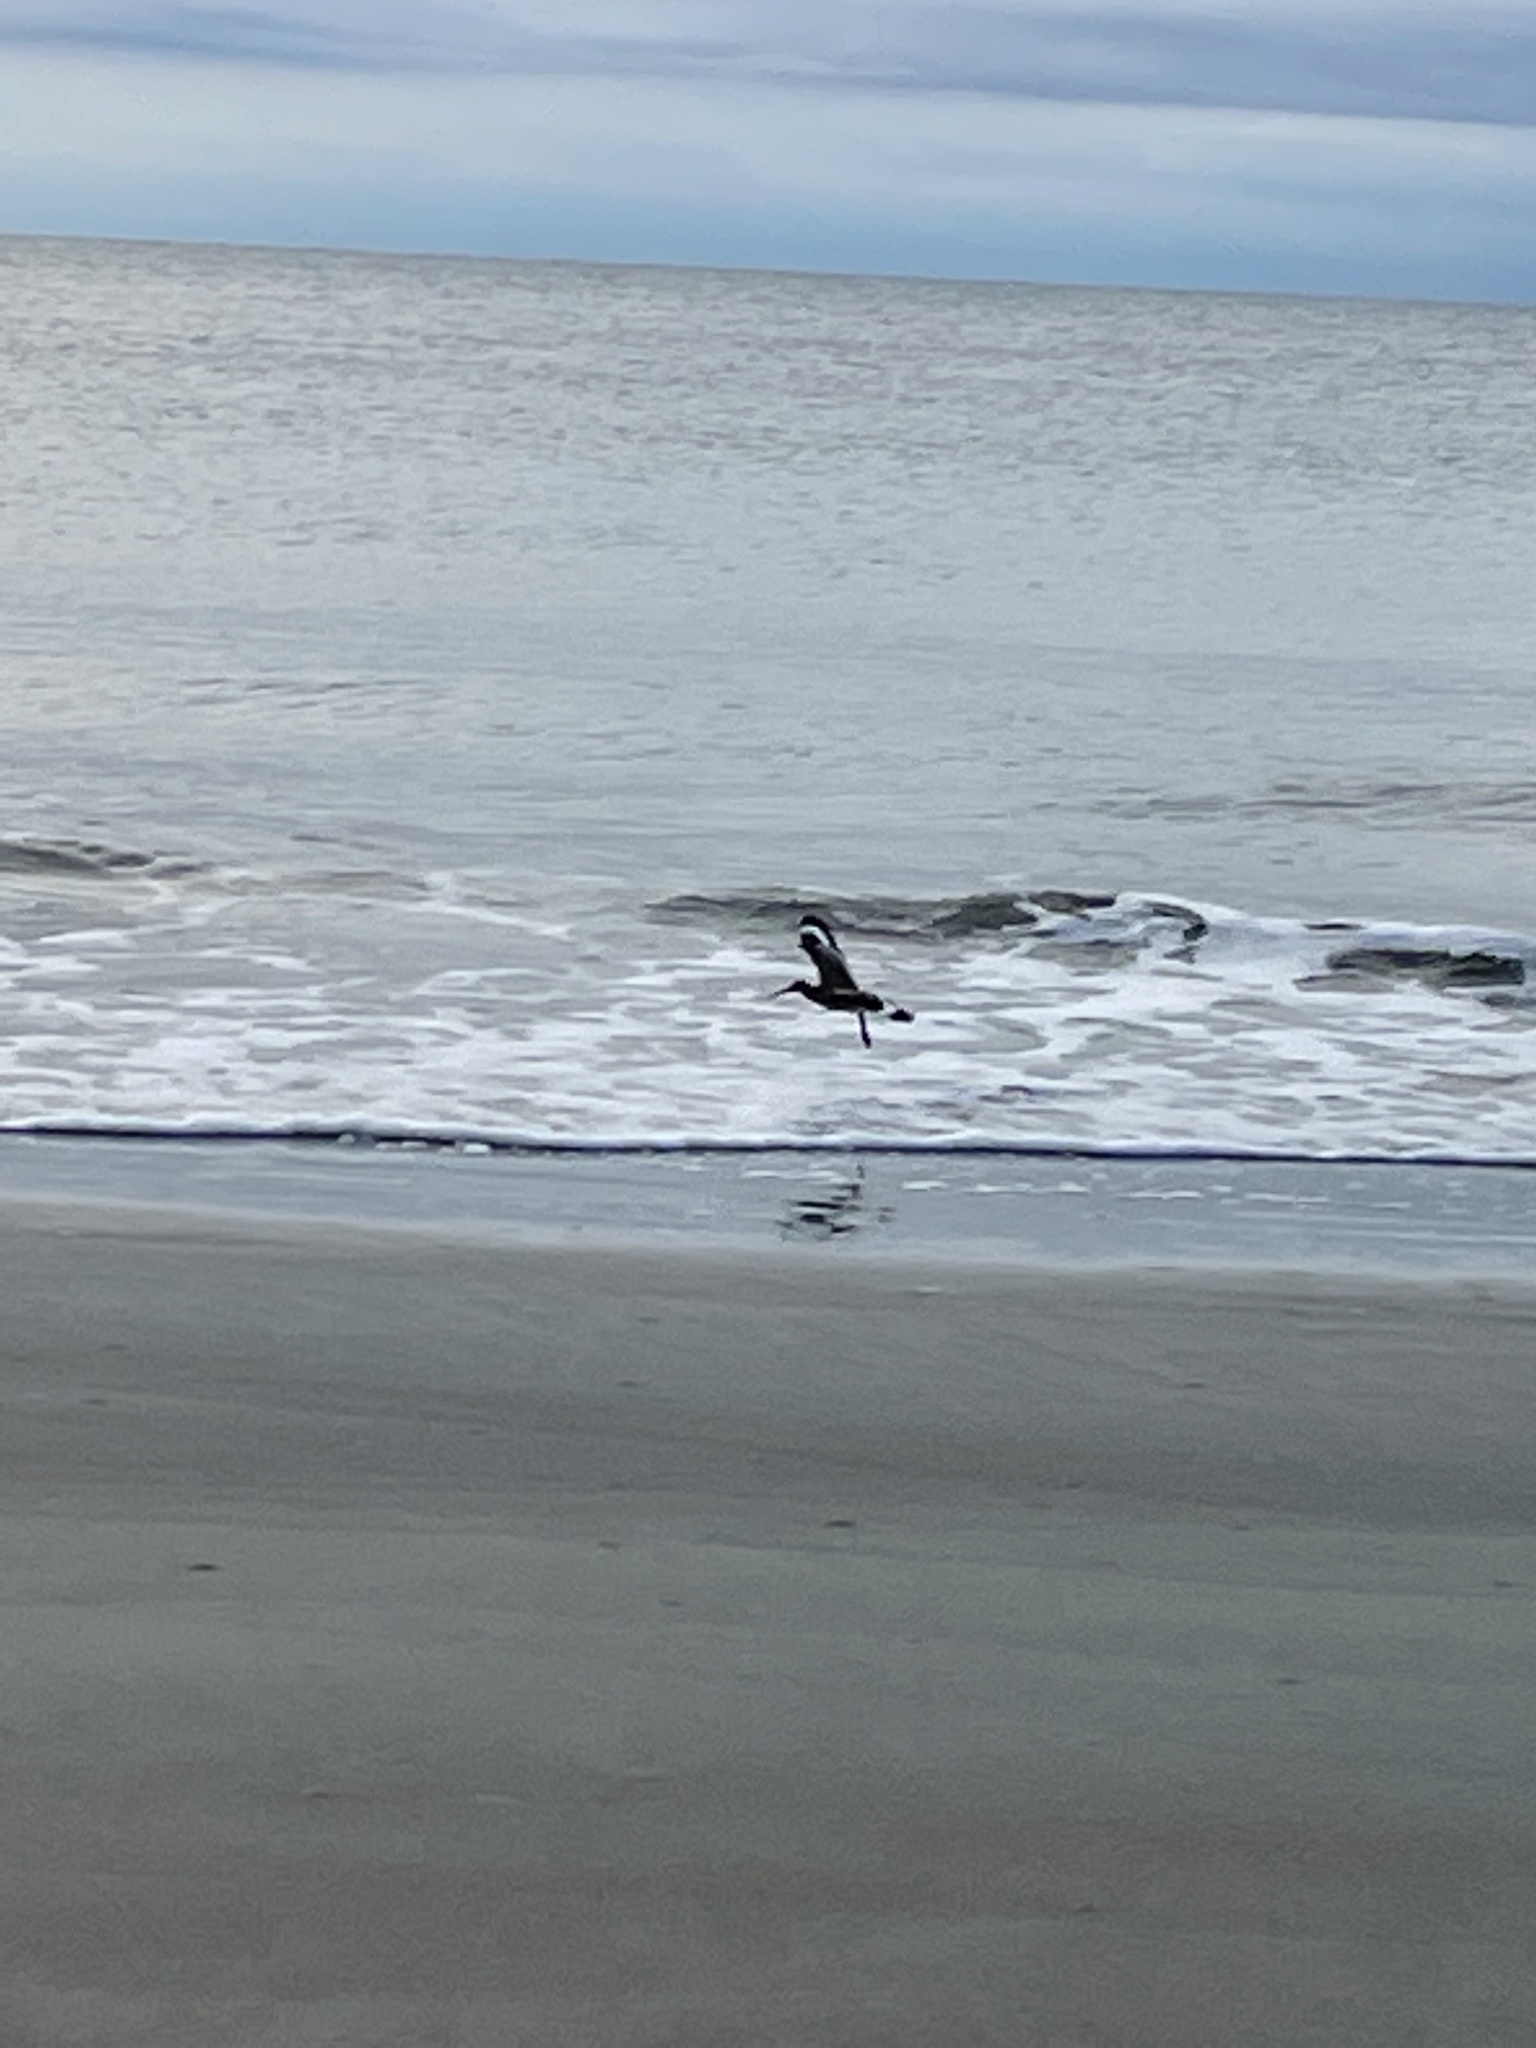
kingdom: Animalia
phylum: Chordata
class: Aves
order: Charadriiformes
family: Scolopacidae
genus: Tringa
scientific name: Tringa semipalmata
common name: Willet
